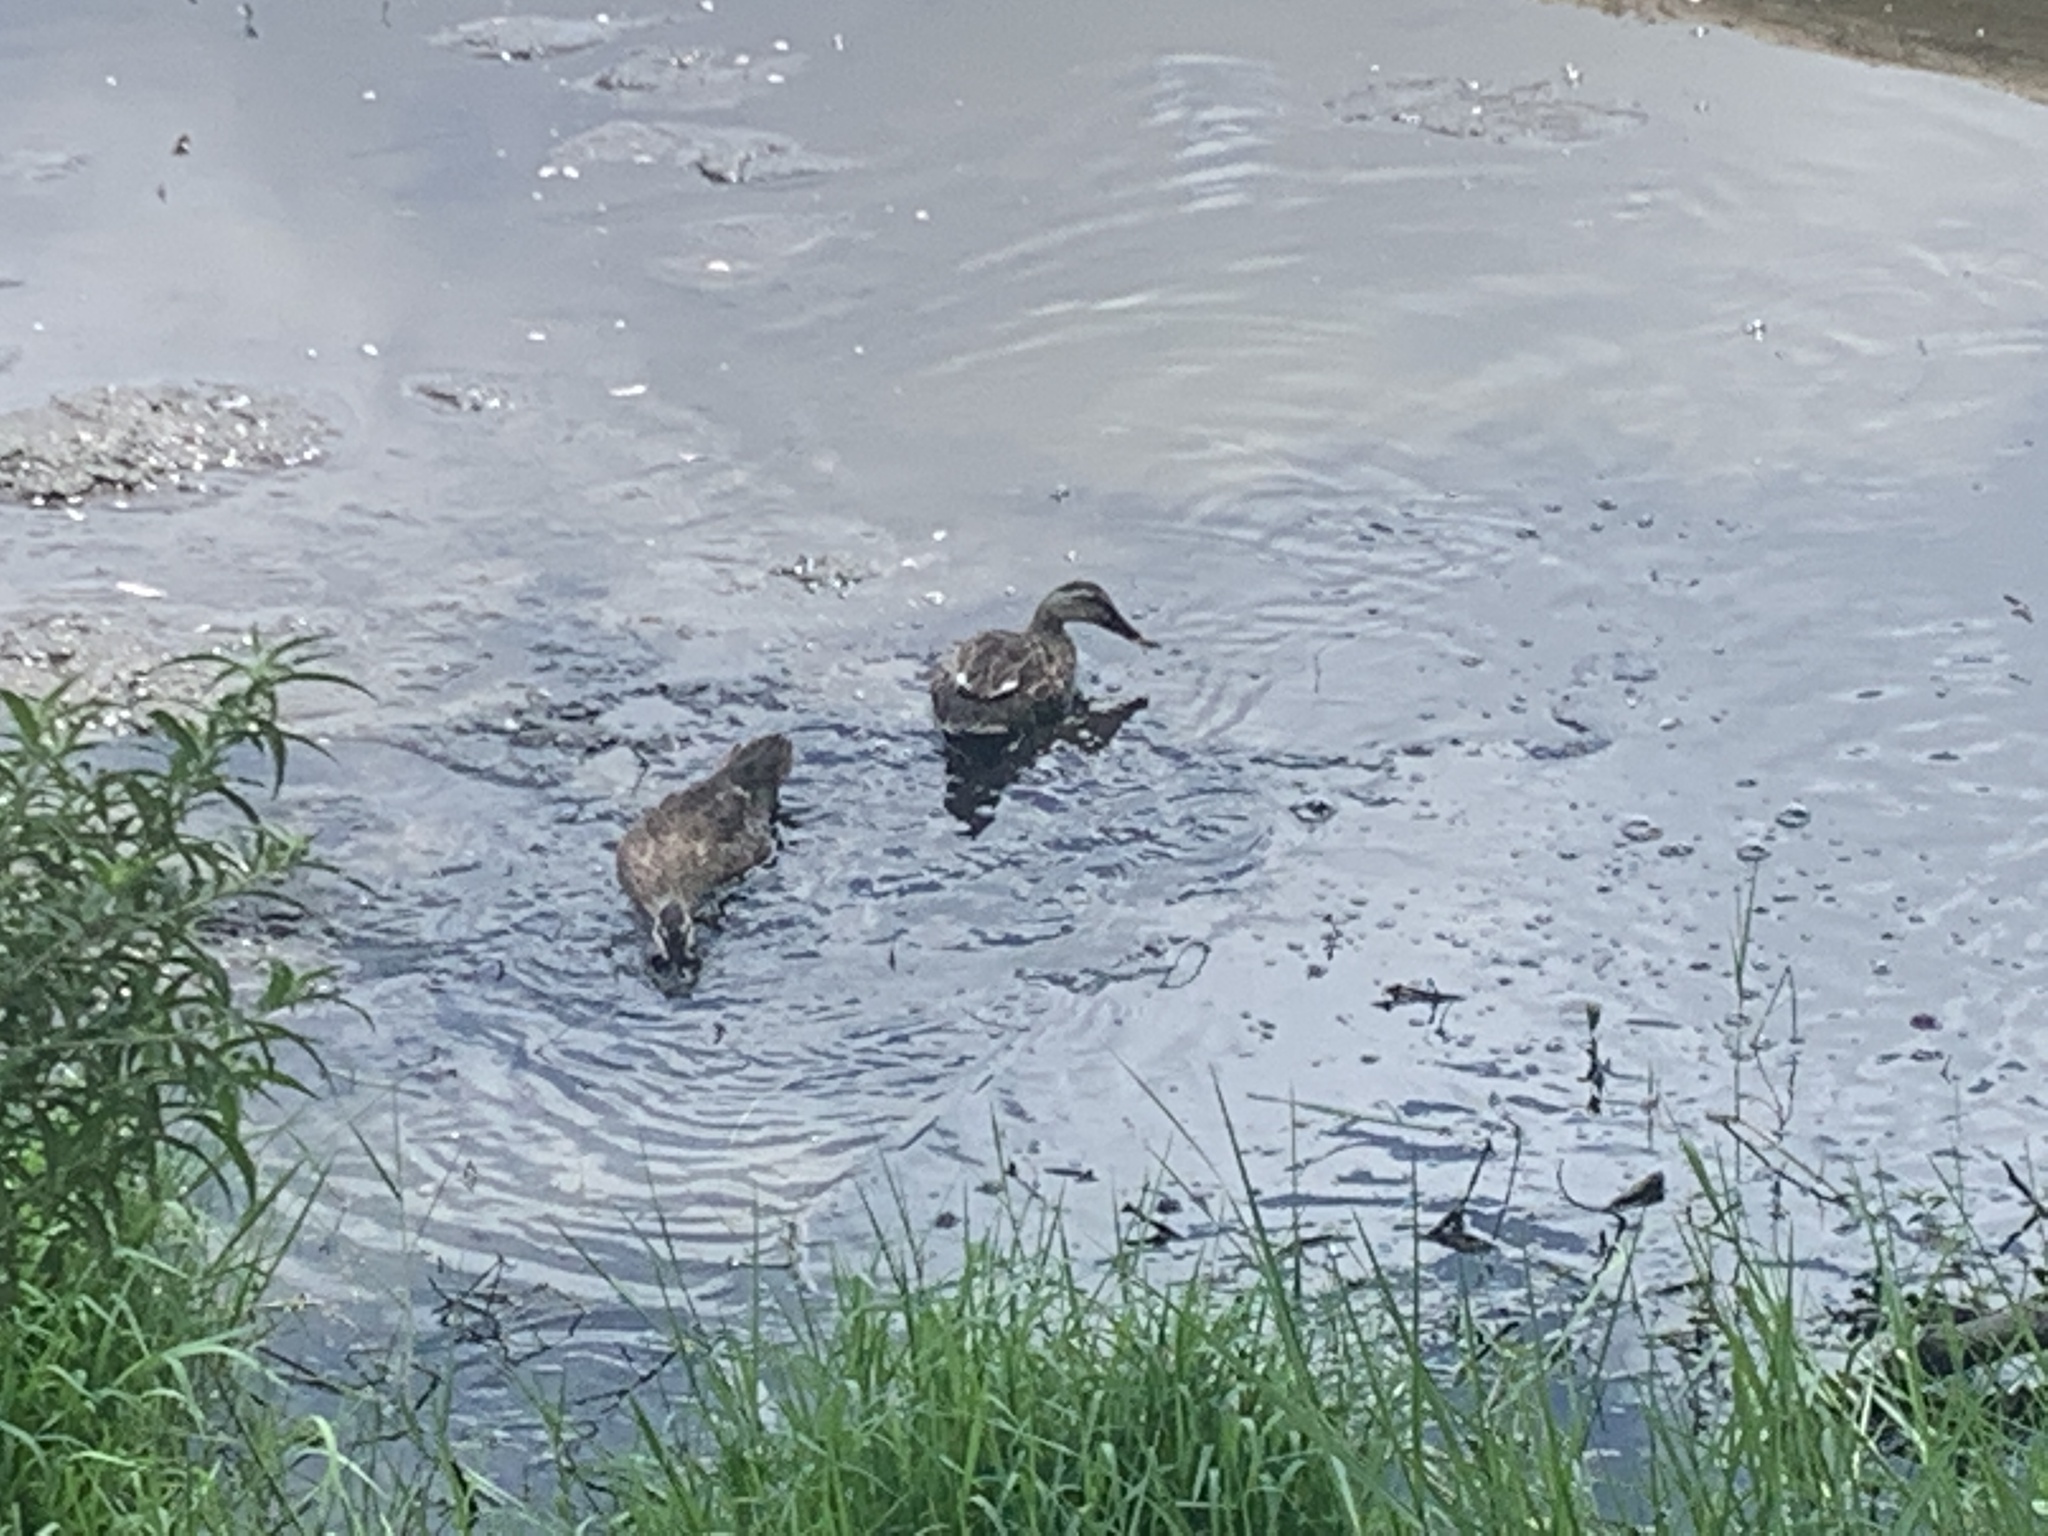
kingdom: Animalia
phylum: Chordata
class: Aves
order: Anseriformes
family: Anatidae
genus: Anas
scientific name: Anas zonorhyncha
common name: Eastern spot-billed duck
